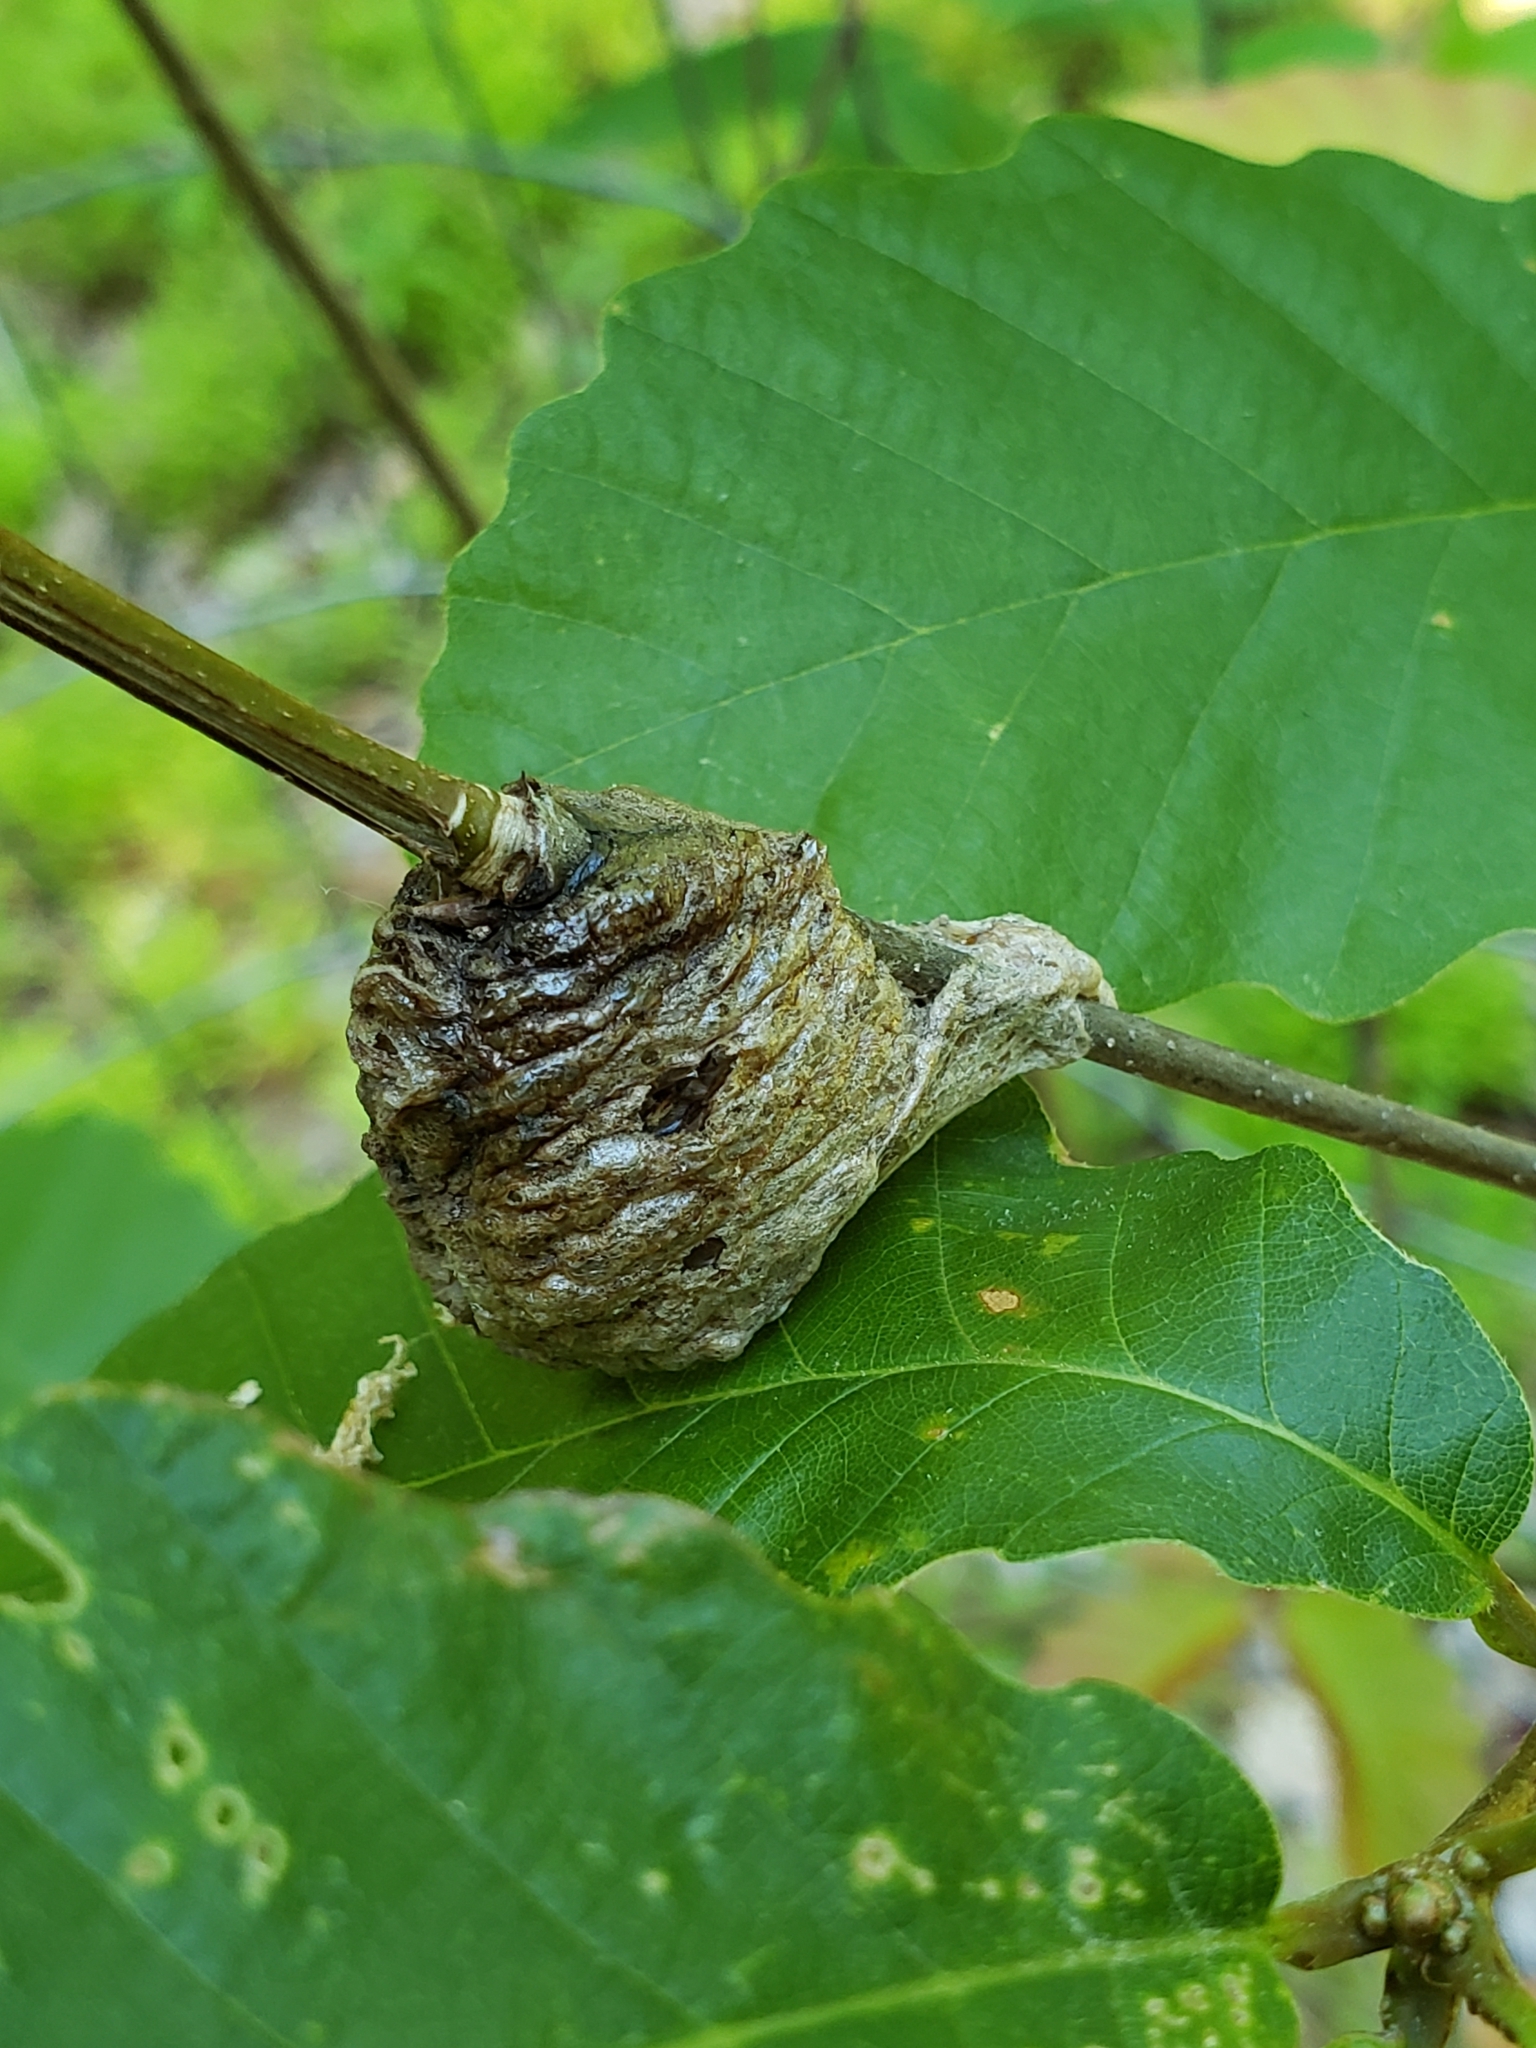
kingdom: Animalia
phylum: Arthropoda
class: Insecta
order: Mantodea
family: Mantidae
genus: Tenodera
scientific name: Tenodera sinensis
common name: Chinese mantis
